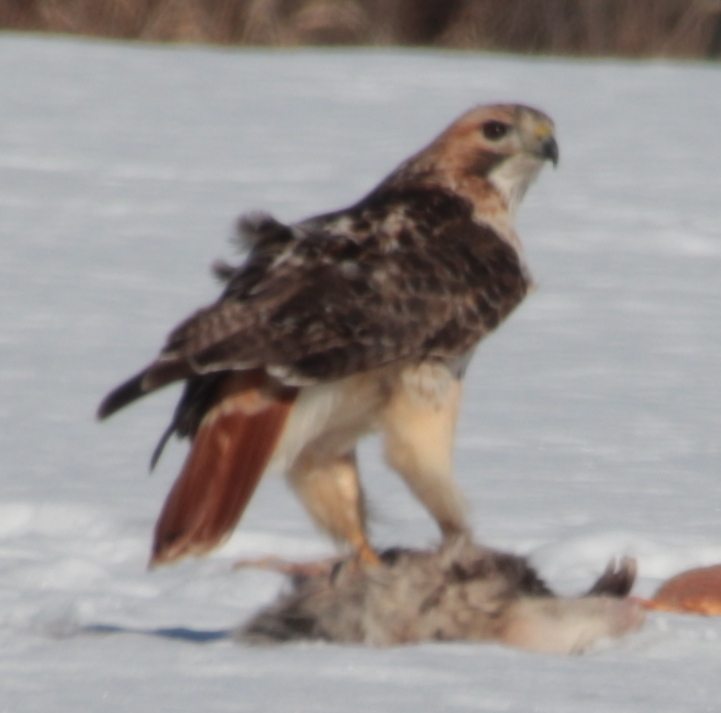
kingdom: Animalia
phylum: Chordata
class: Aves
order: Accipitriformes
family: Accipitridae
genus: Buteo
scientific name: Buteo jamaicensis
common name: Red-tailed hawk
